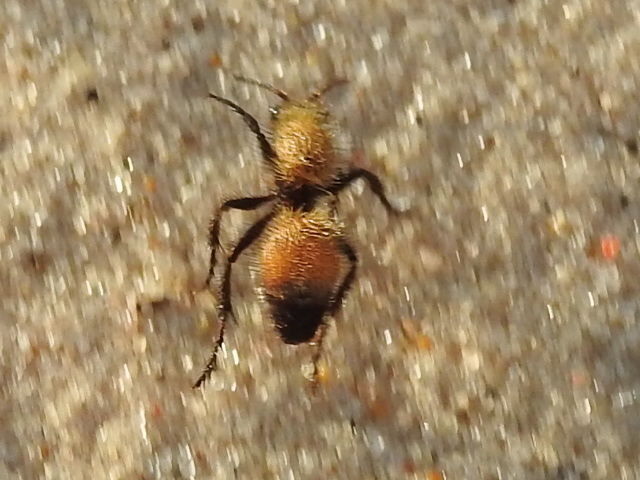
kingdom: Animalia
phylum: Arthropoda
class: Insecta
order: Hymenoptera
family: Mutillidae
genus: Dasymutilla
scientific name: Dasymutilla
